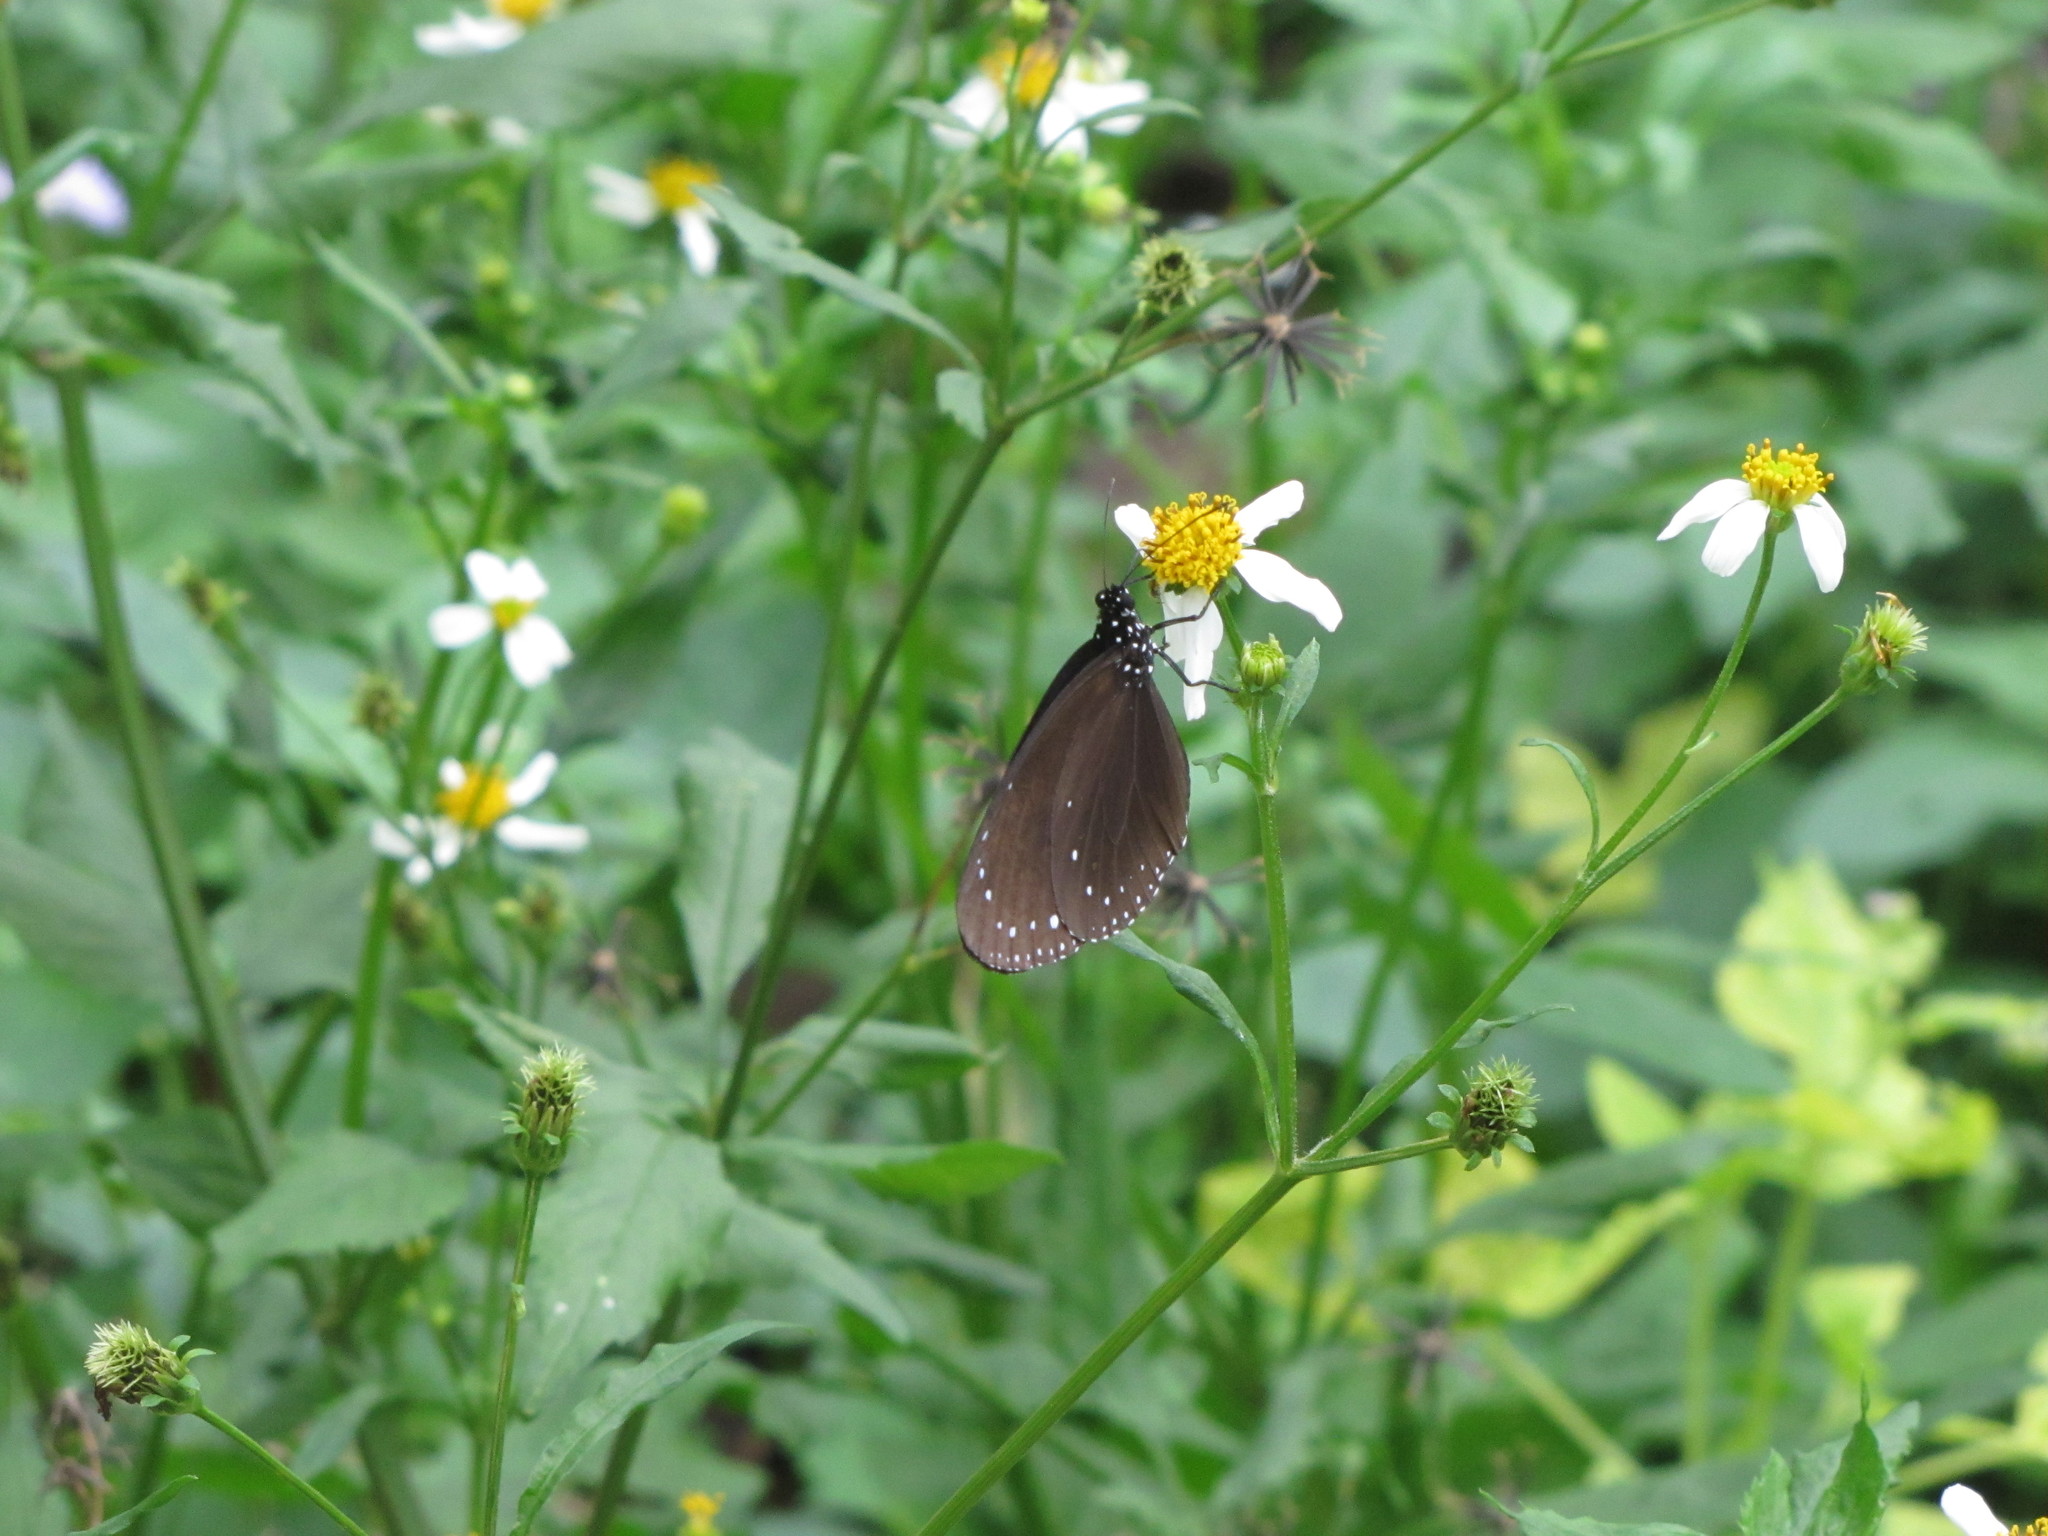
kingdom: Animalia
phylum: Arthropoda
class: Insecta
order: Lepidoptera
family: Nymphalidae
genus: Euploea
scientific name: Euploea tulliolus
